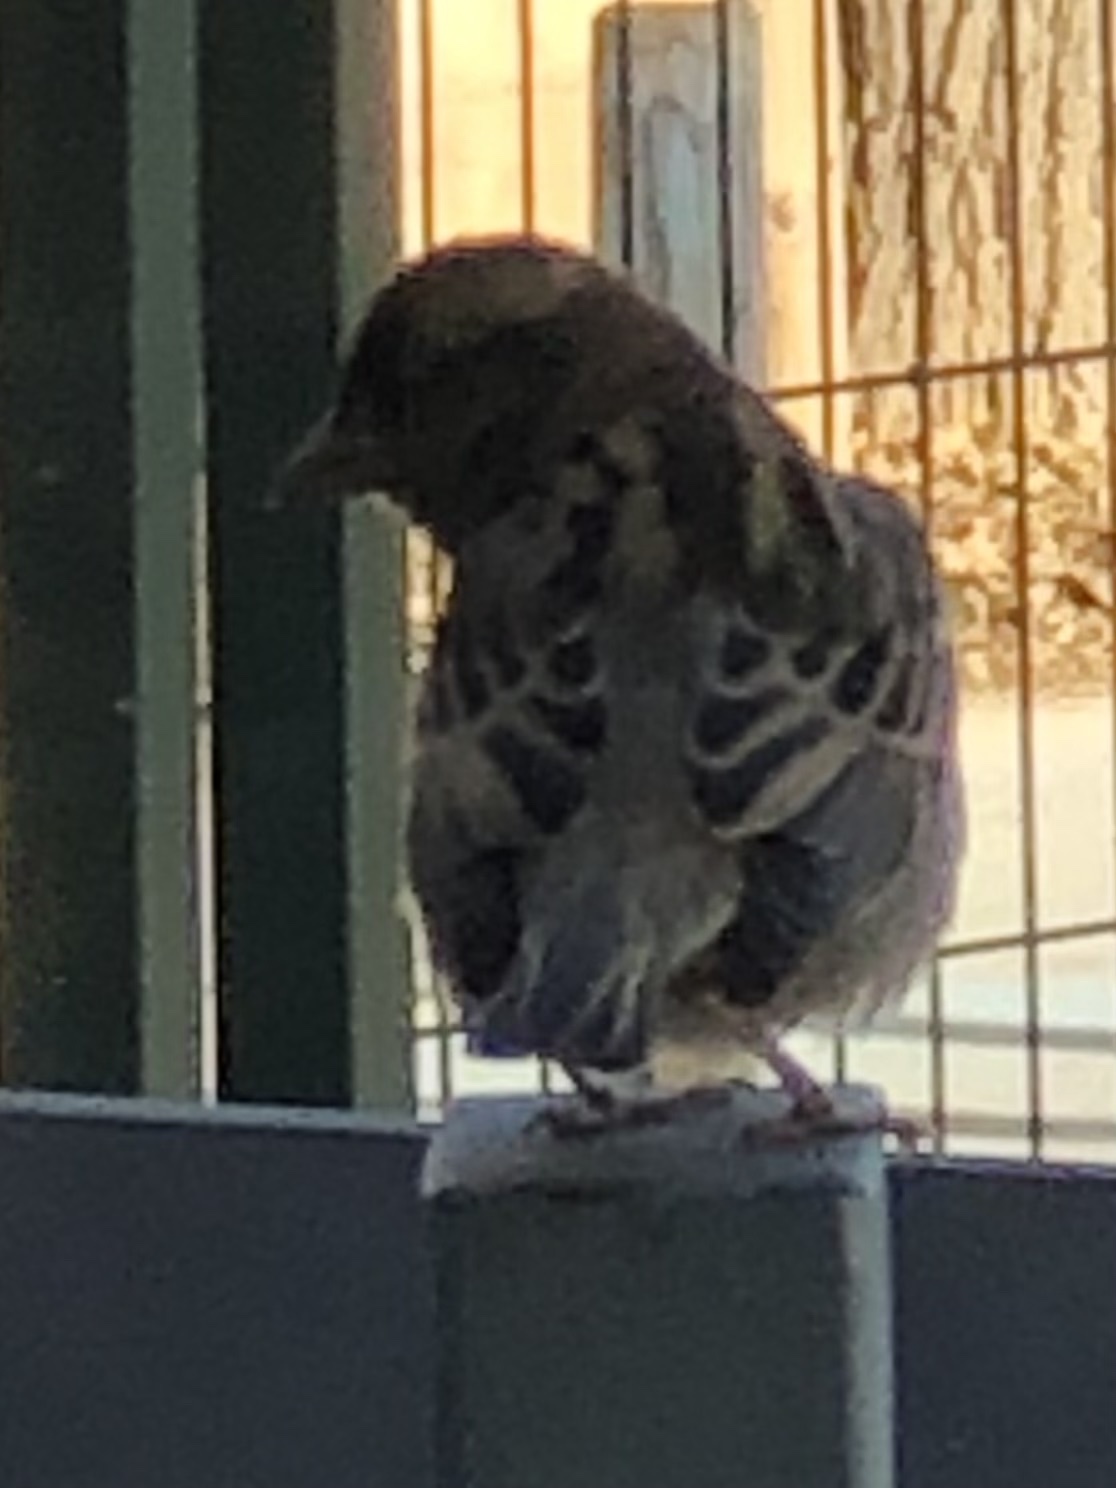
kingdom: Animalia
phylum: Chordata
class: Aves
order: Passeriformes
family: Passeridae
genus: Passer
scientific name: Passer domesticus
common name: House sparrow
